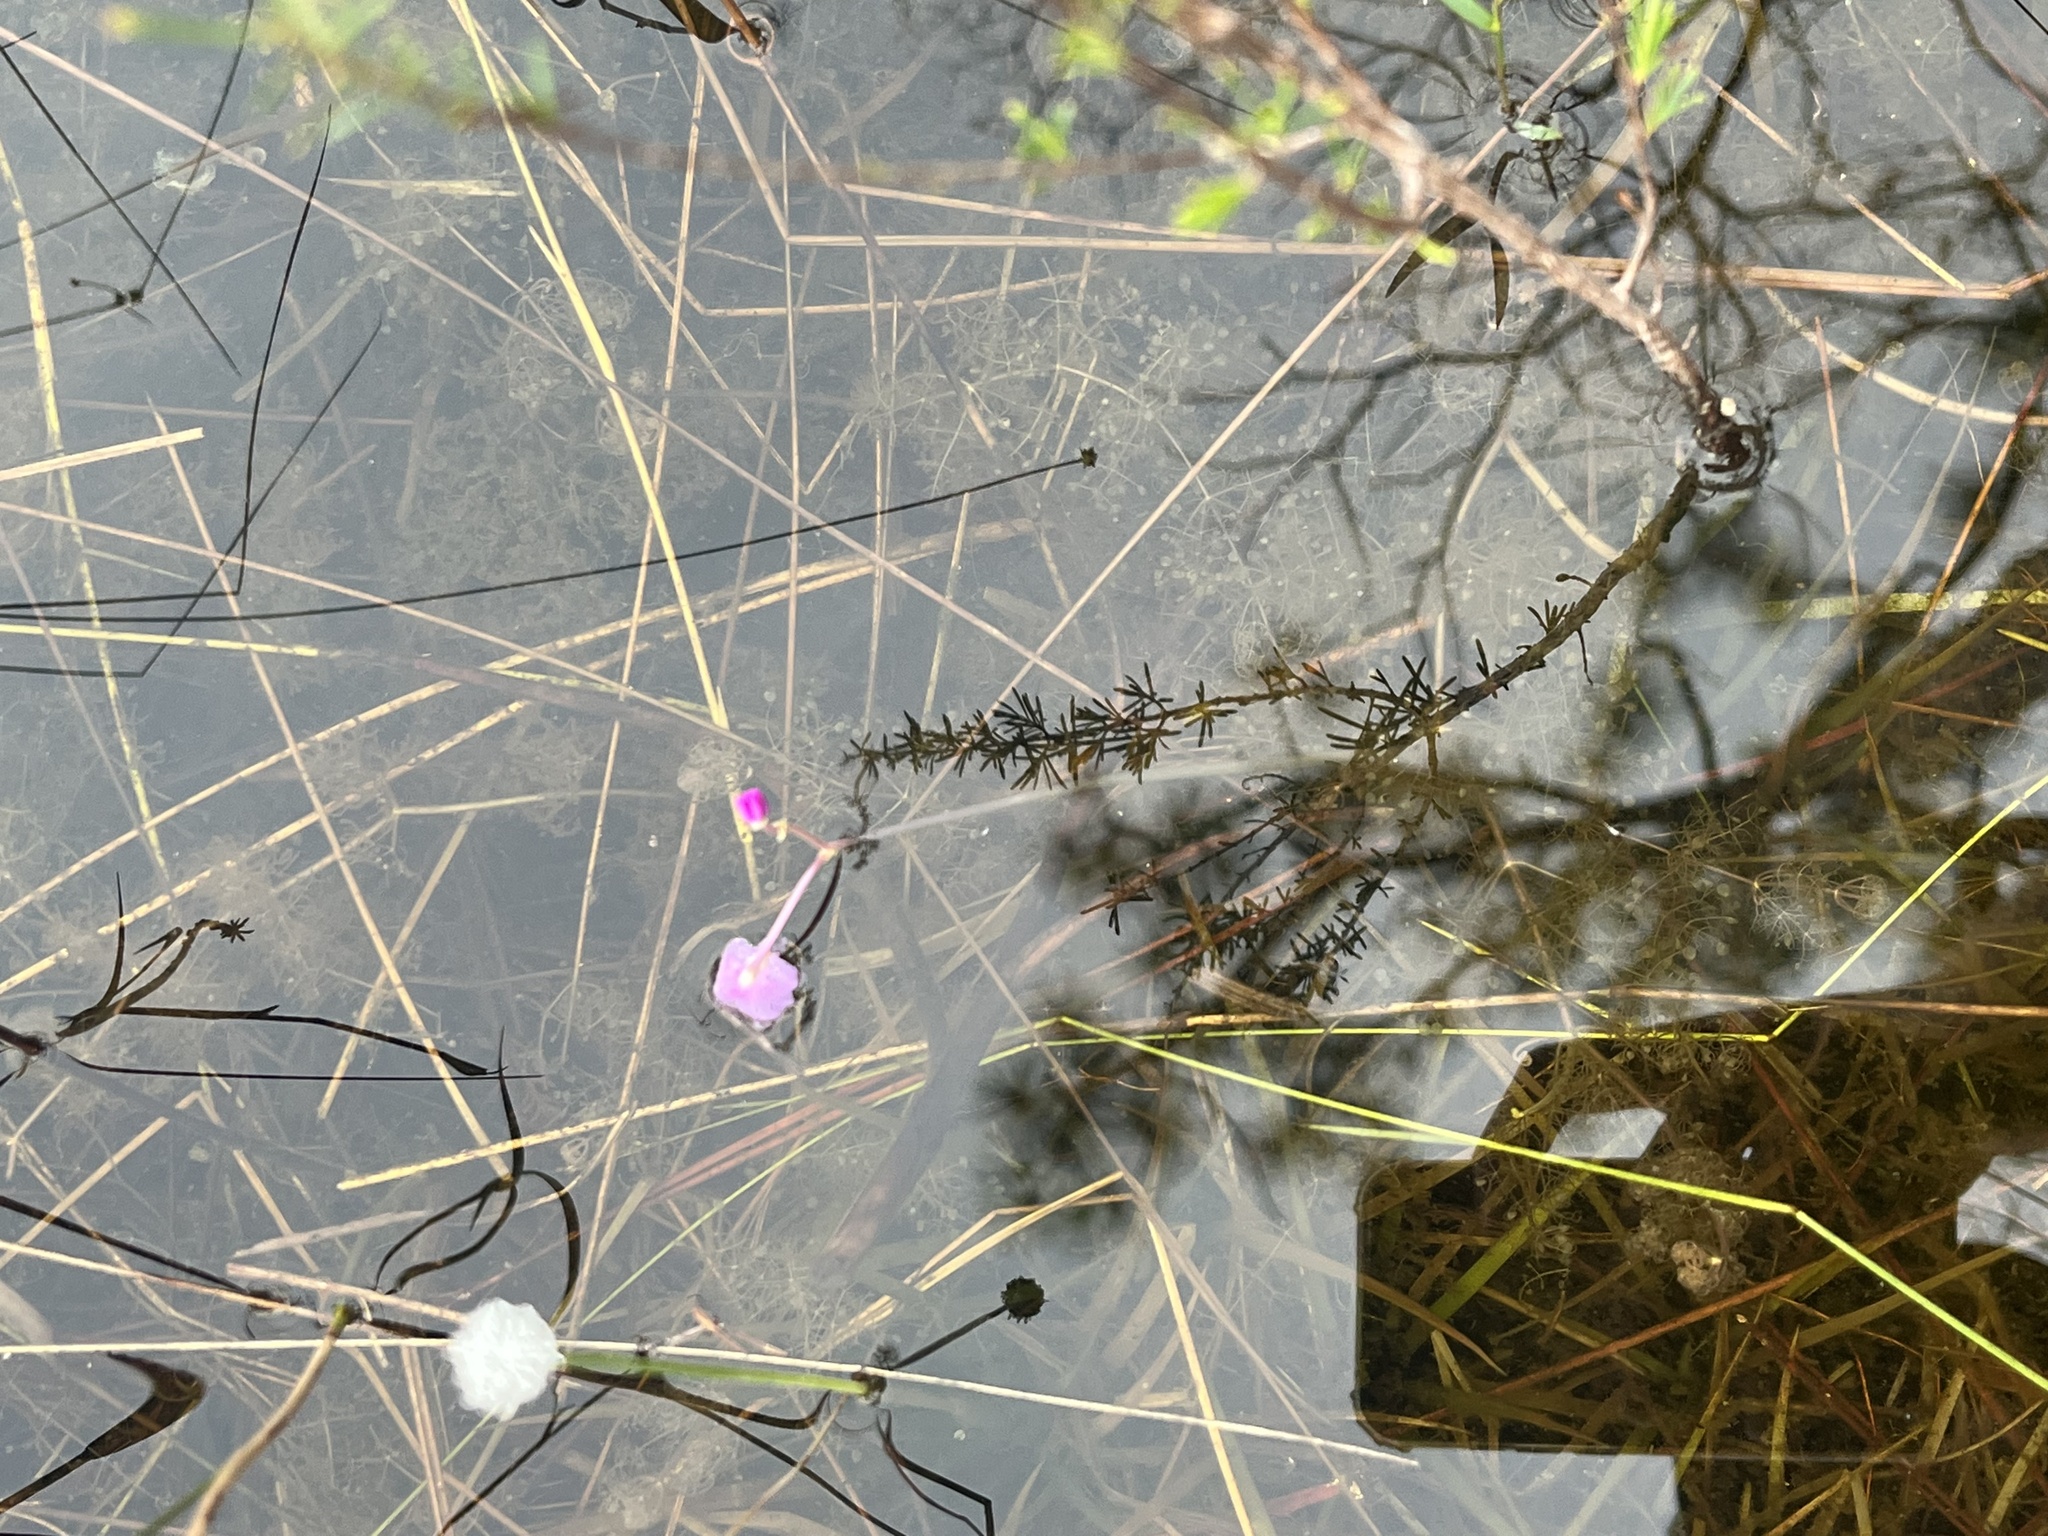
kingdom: Plantae
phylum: Tracheophyta
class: Magnoliopsida
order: Lamiales
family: Lentibulariaceae
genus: Utricularia
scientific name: Utricularia purpurea
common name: Eastern purple bladderwort
